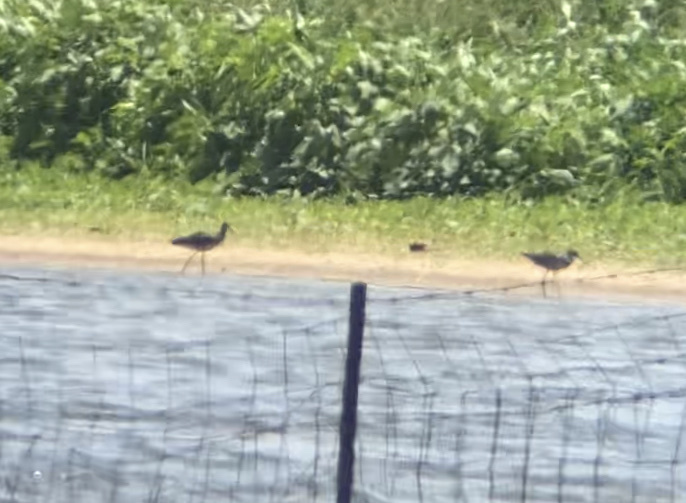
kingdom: Animalia
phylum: Chordata
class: Aves
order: Charadriiformes
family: Scolopacidae
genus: Tringa
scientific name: Tringa melanoleuca
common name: Greater yellowlegs
